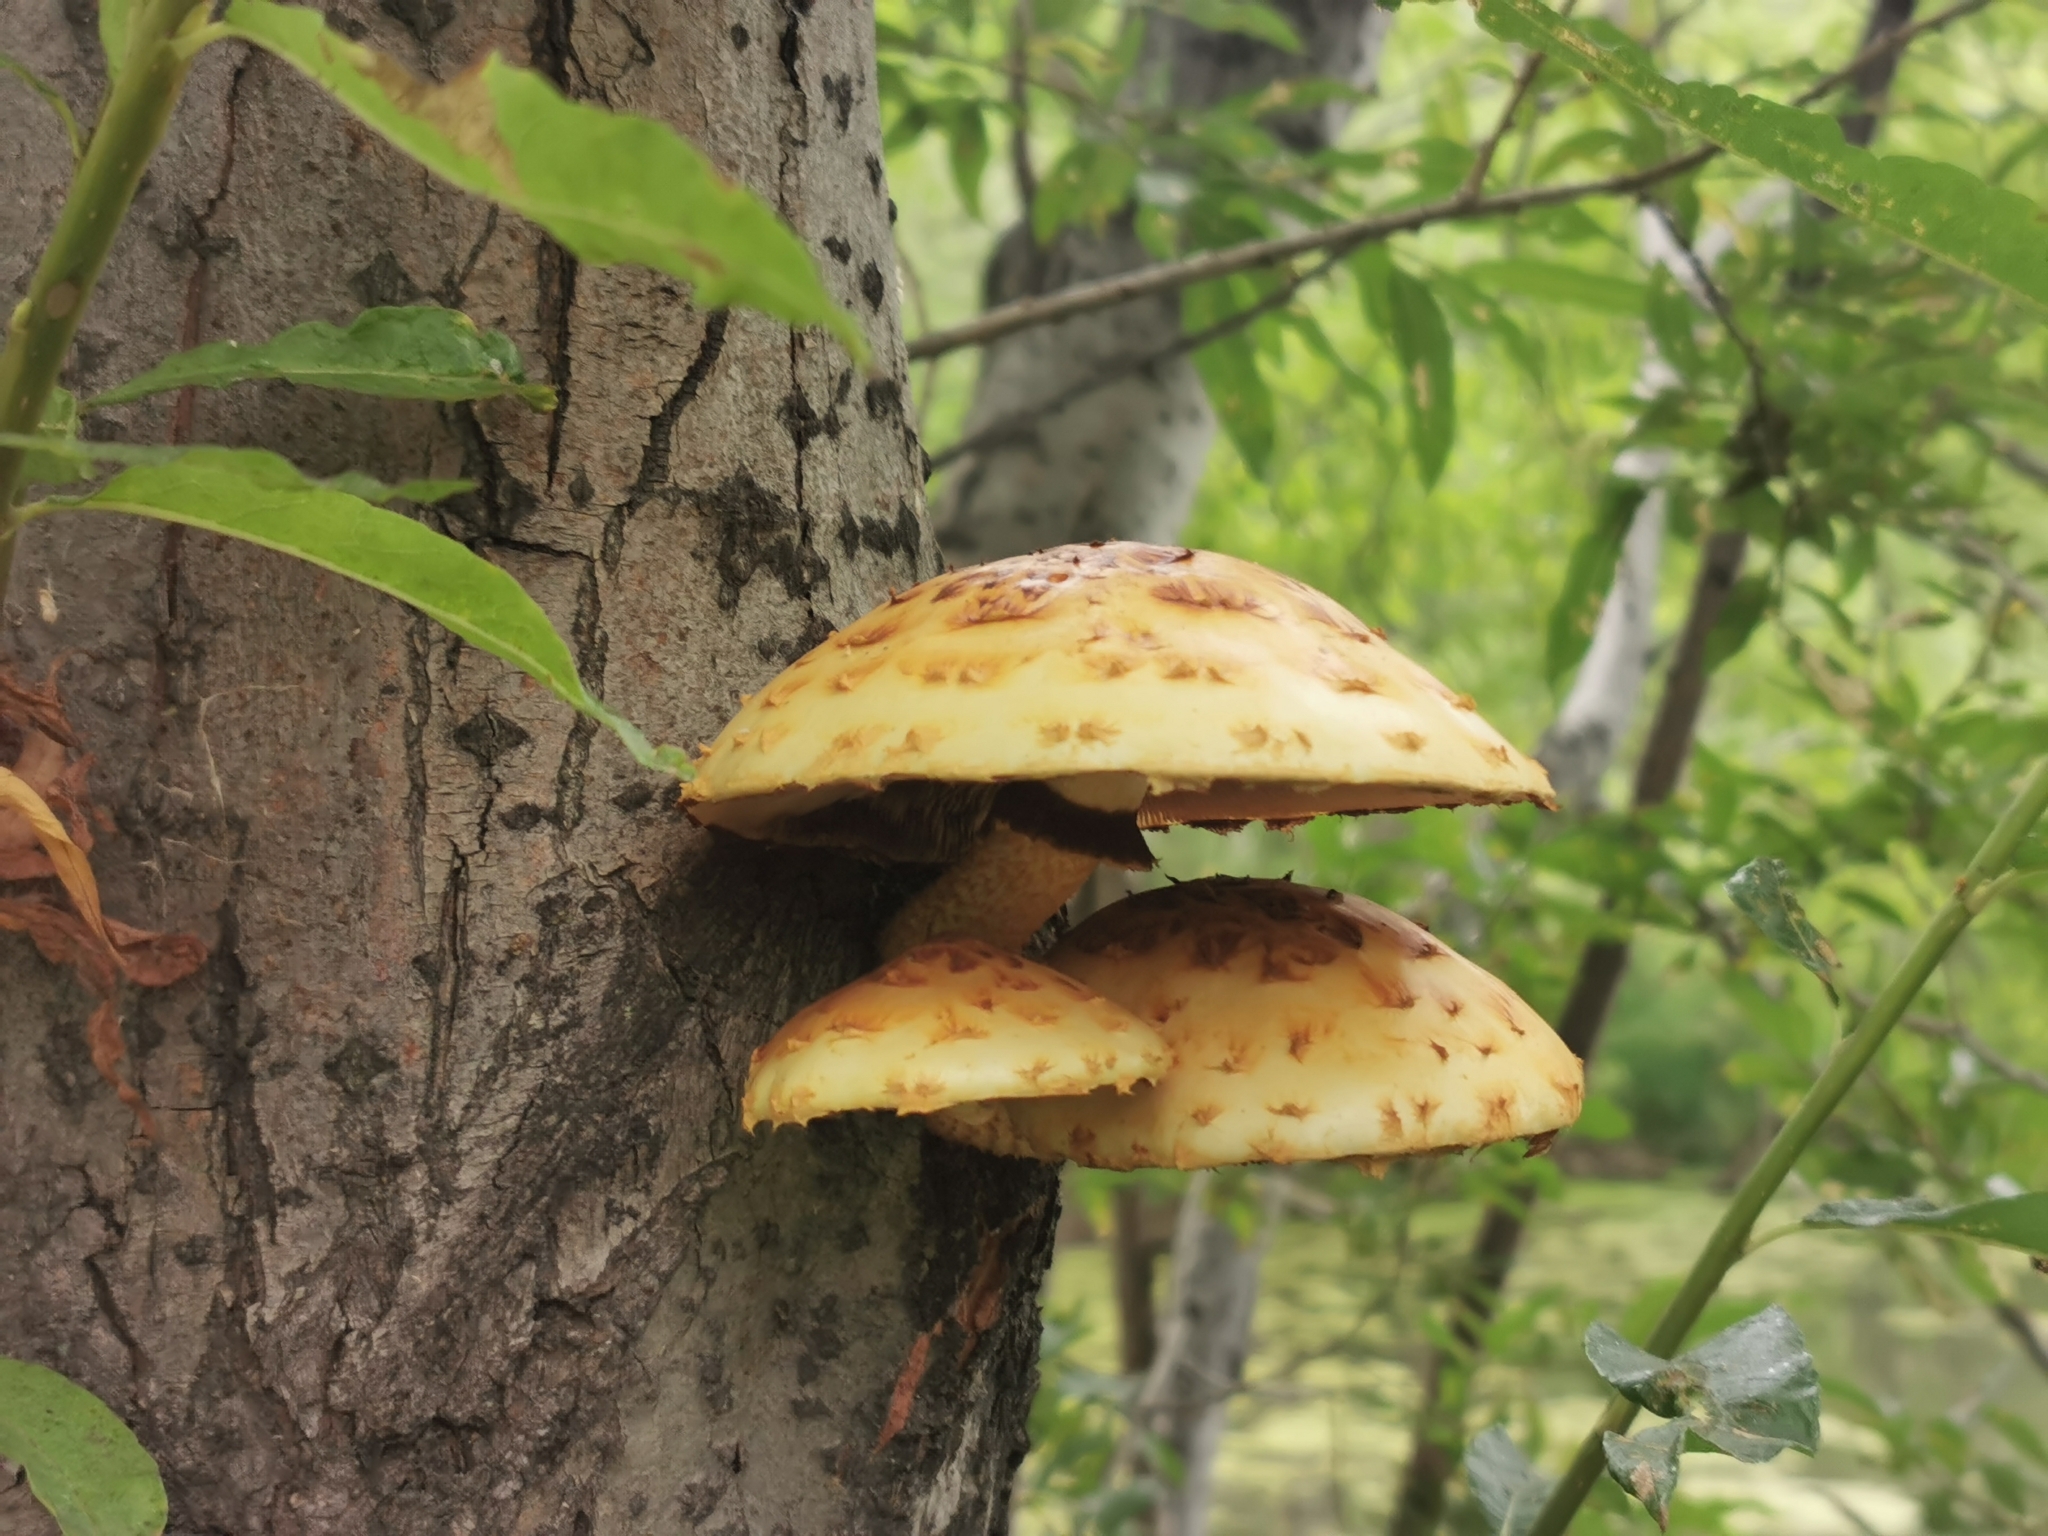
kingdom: Fungi
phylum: Basidiomycota
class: Agaricomycetes
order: Agaricales
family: Strophariaceae
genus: Pholiota
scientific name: Pholiota aurivella
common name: Golden scalycap
